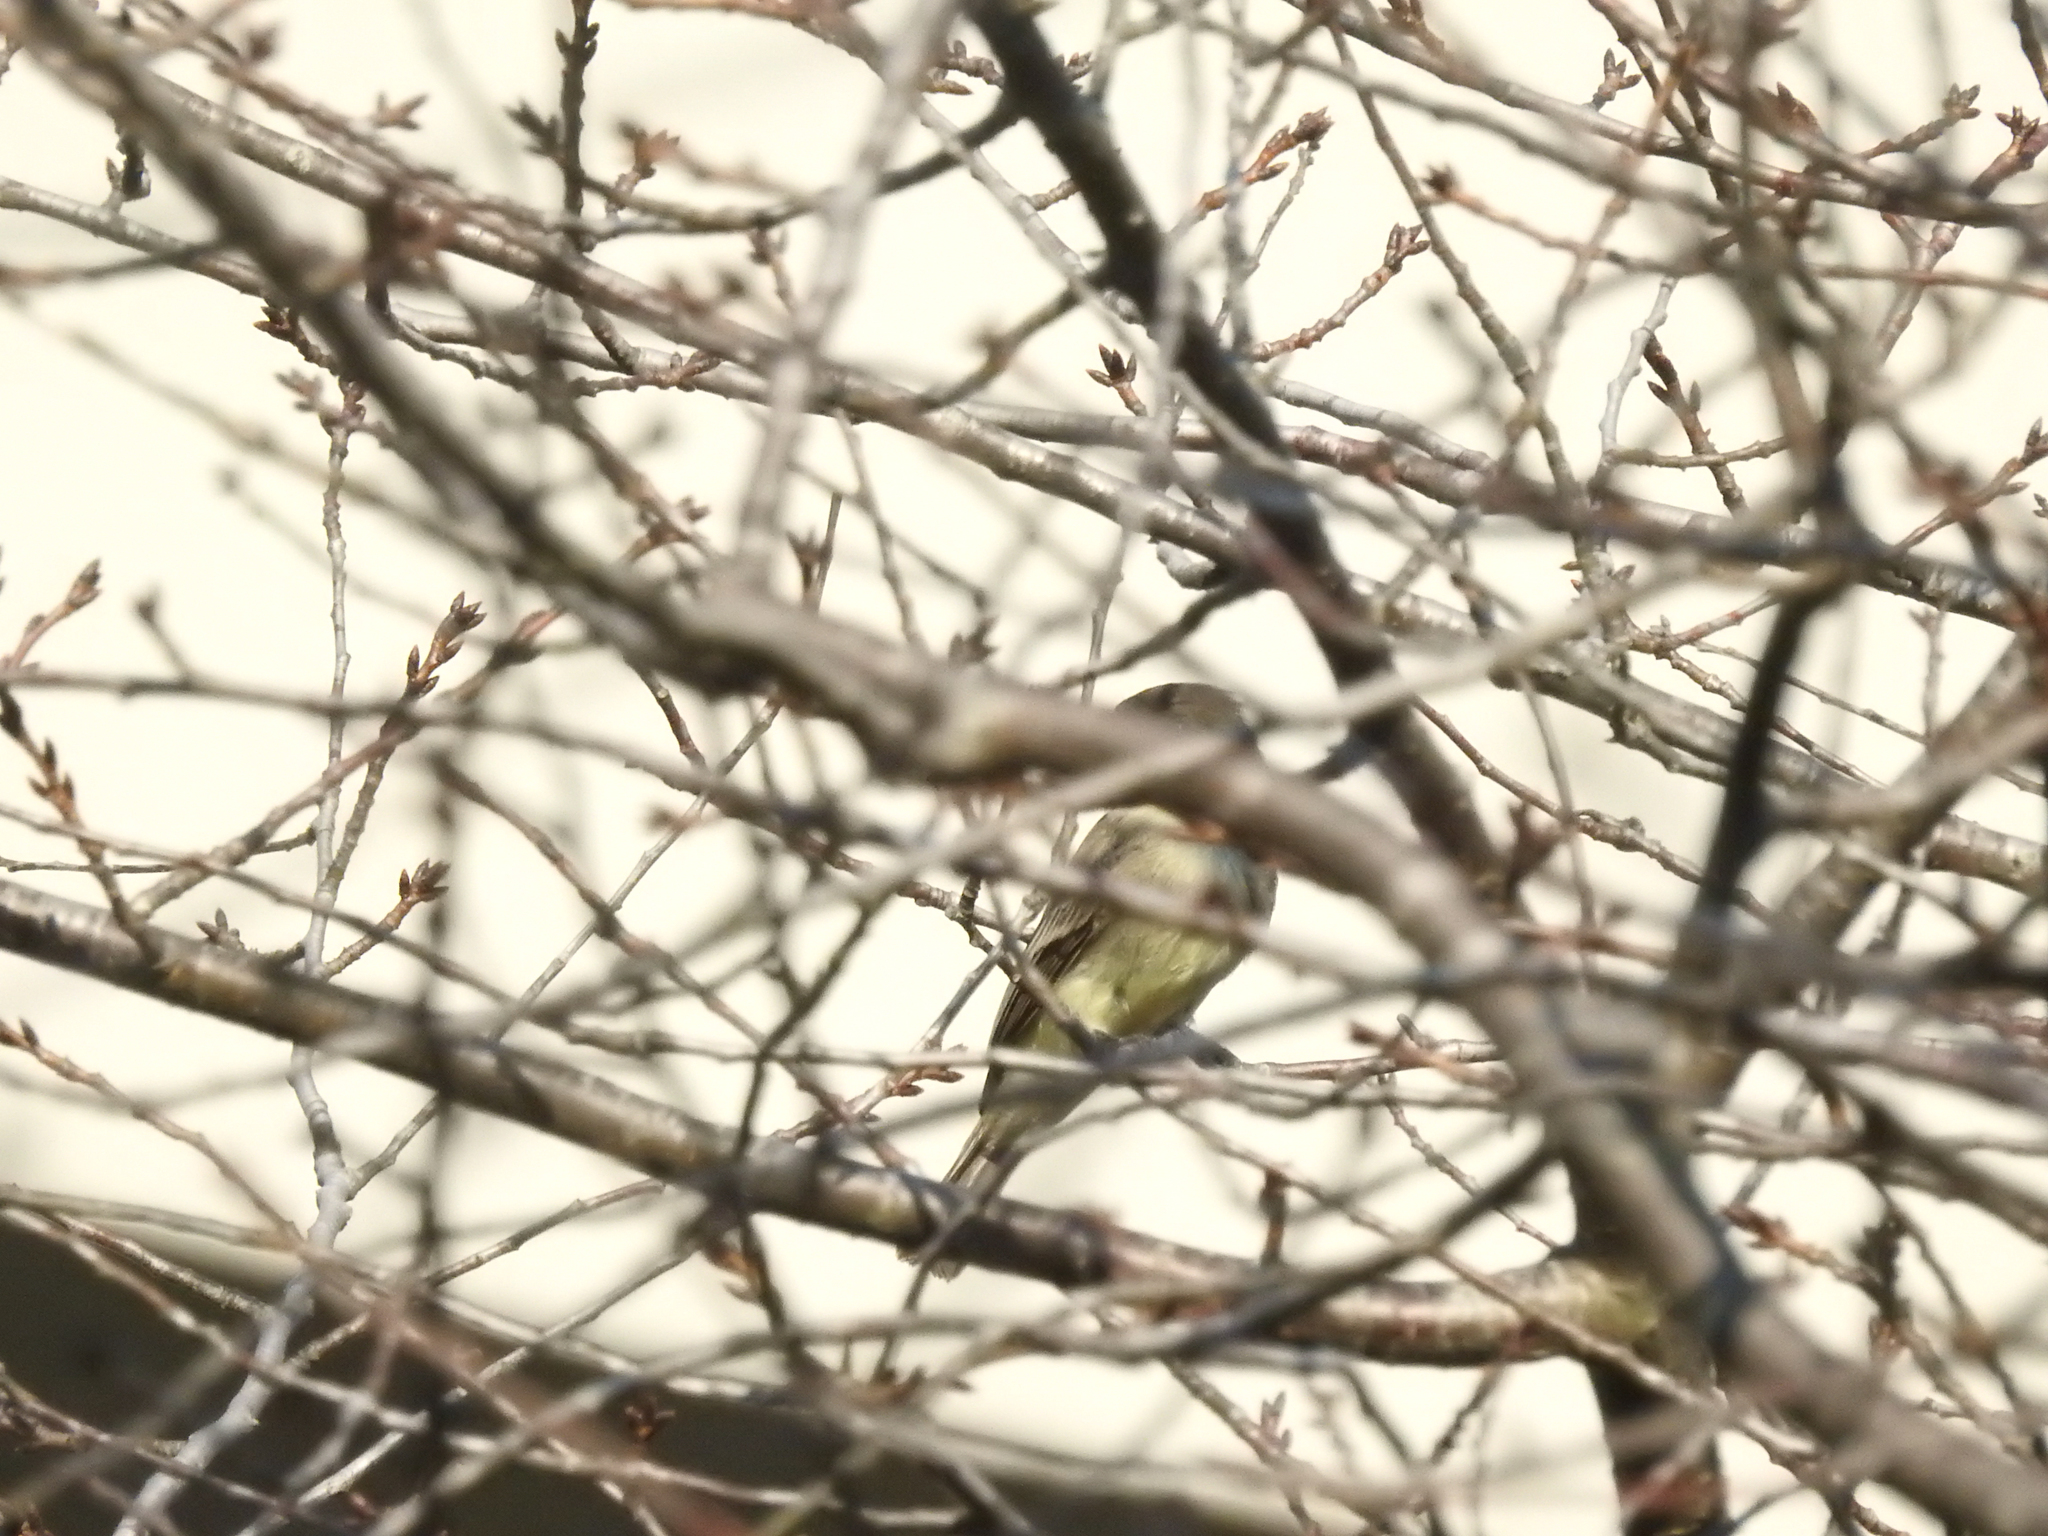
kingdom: Animalia
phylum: Chordata
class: Aves
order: Passeriformes
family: Tyrannidae
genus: Sayornis
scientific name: Sayornis phoebe
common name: Eastern phoebe
